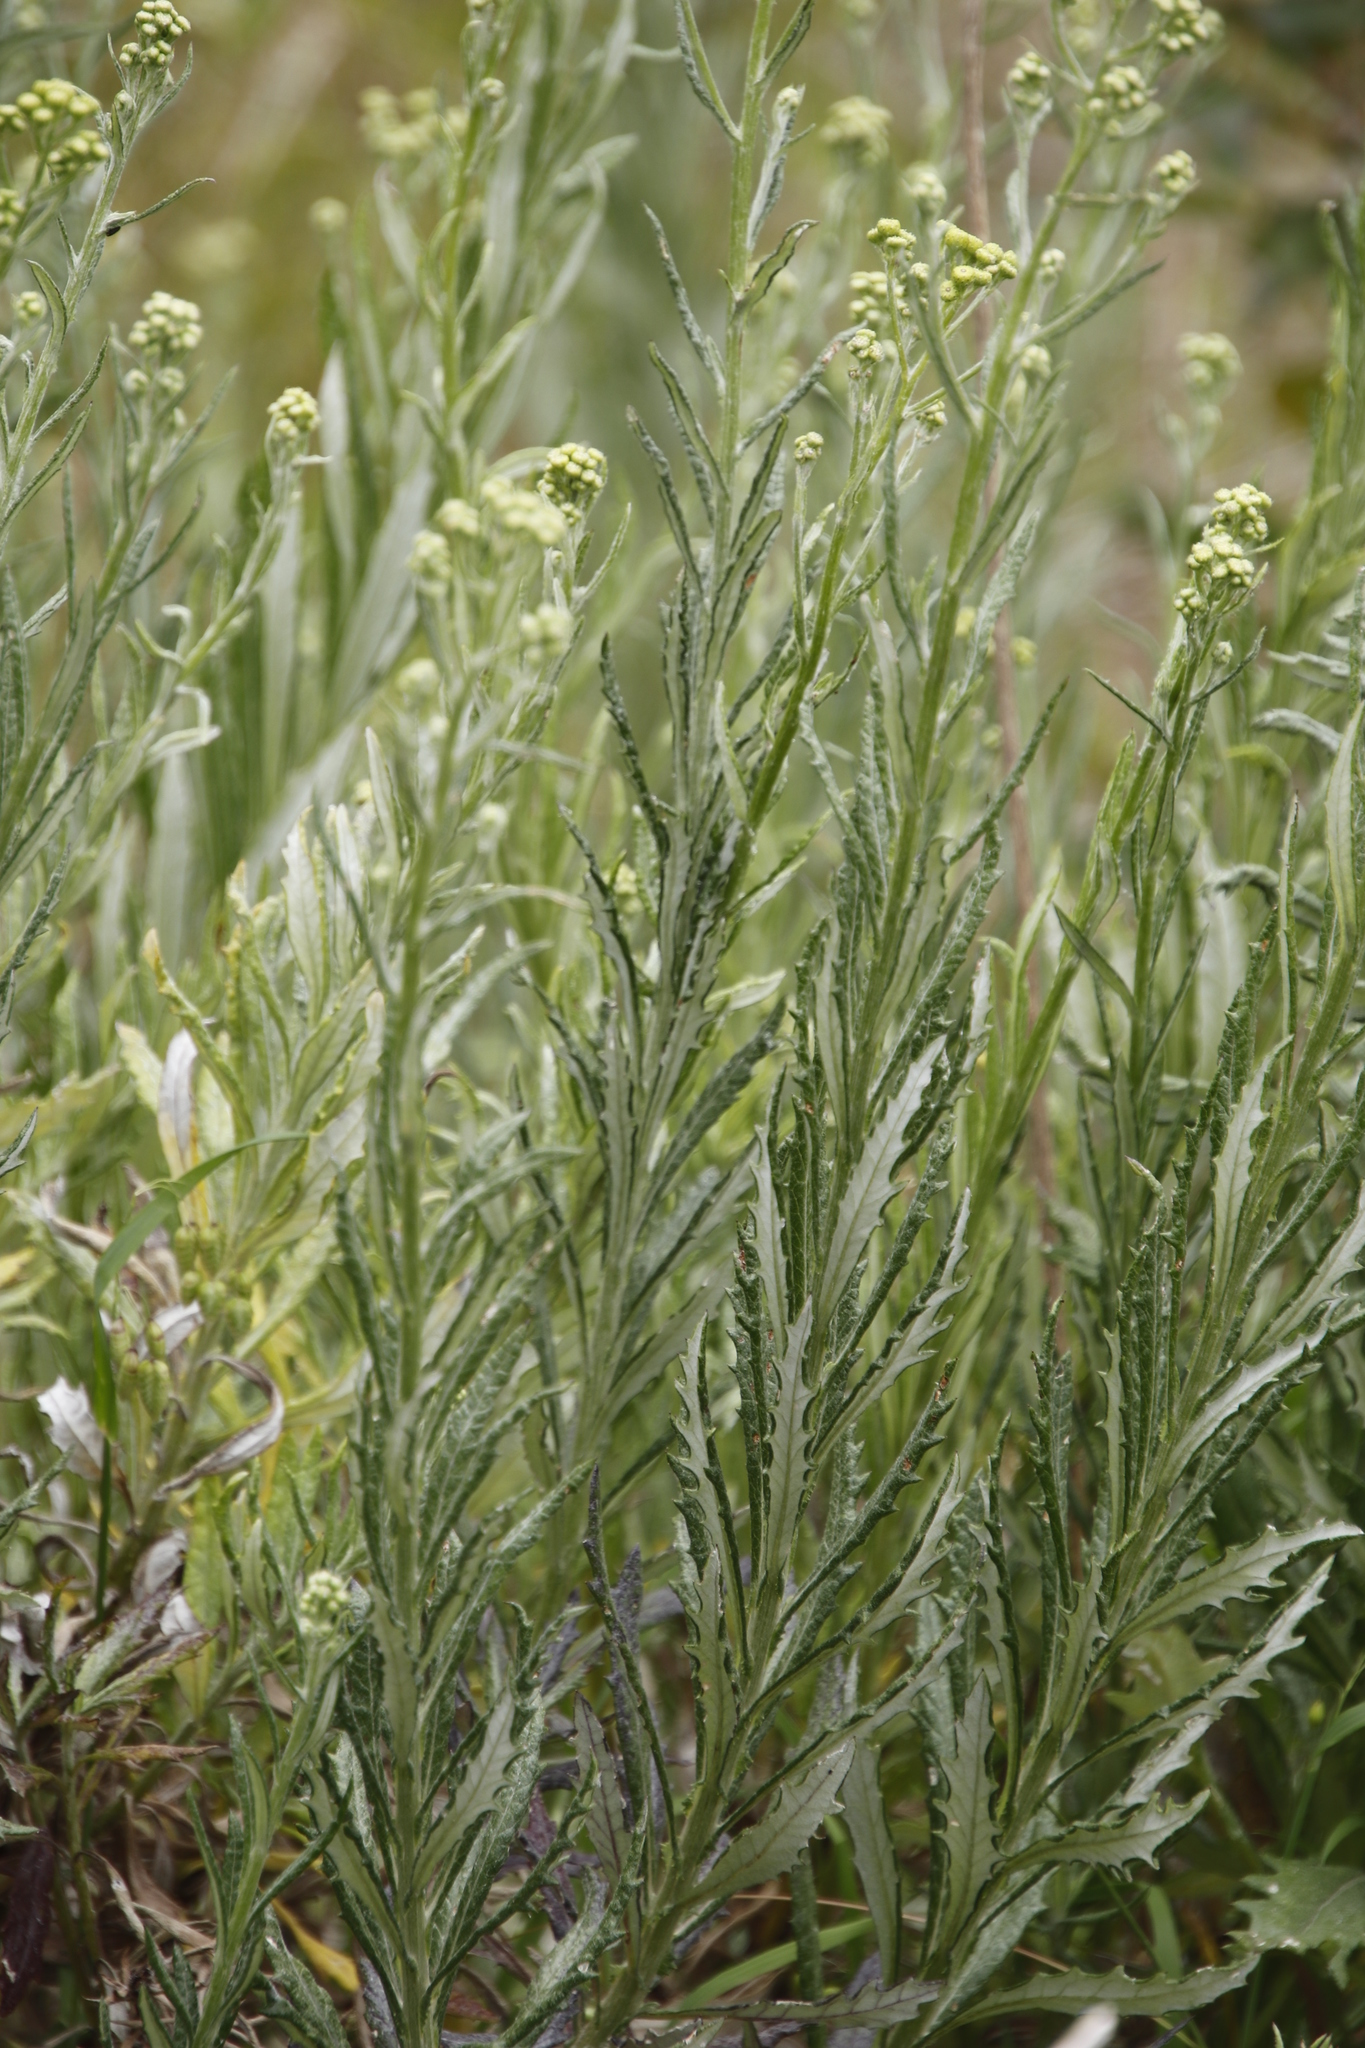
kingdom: Plantae
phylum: Tracheophyta
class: Magnoliopsida
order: Asterales
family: Asteraceae
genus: Senecio
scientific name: Senecio pterophorus
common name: Shoddy ragwort
